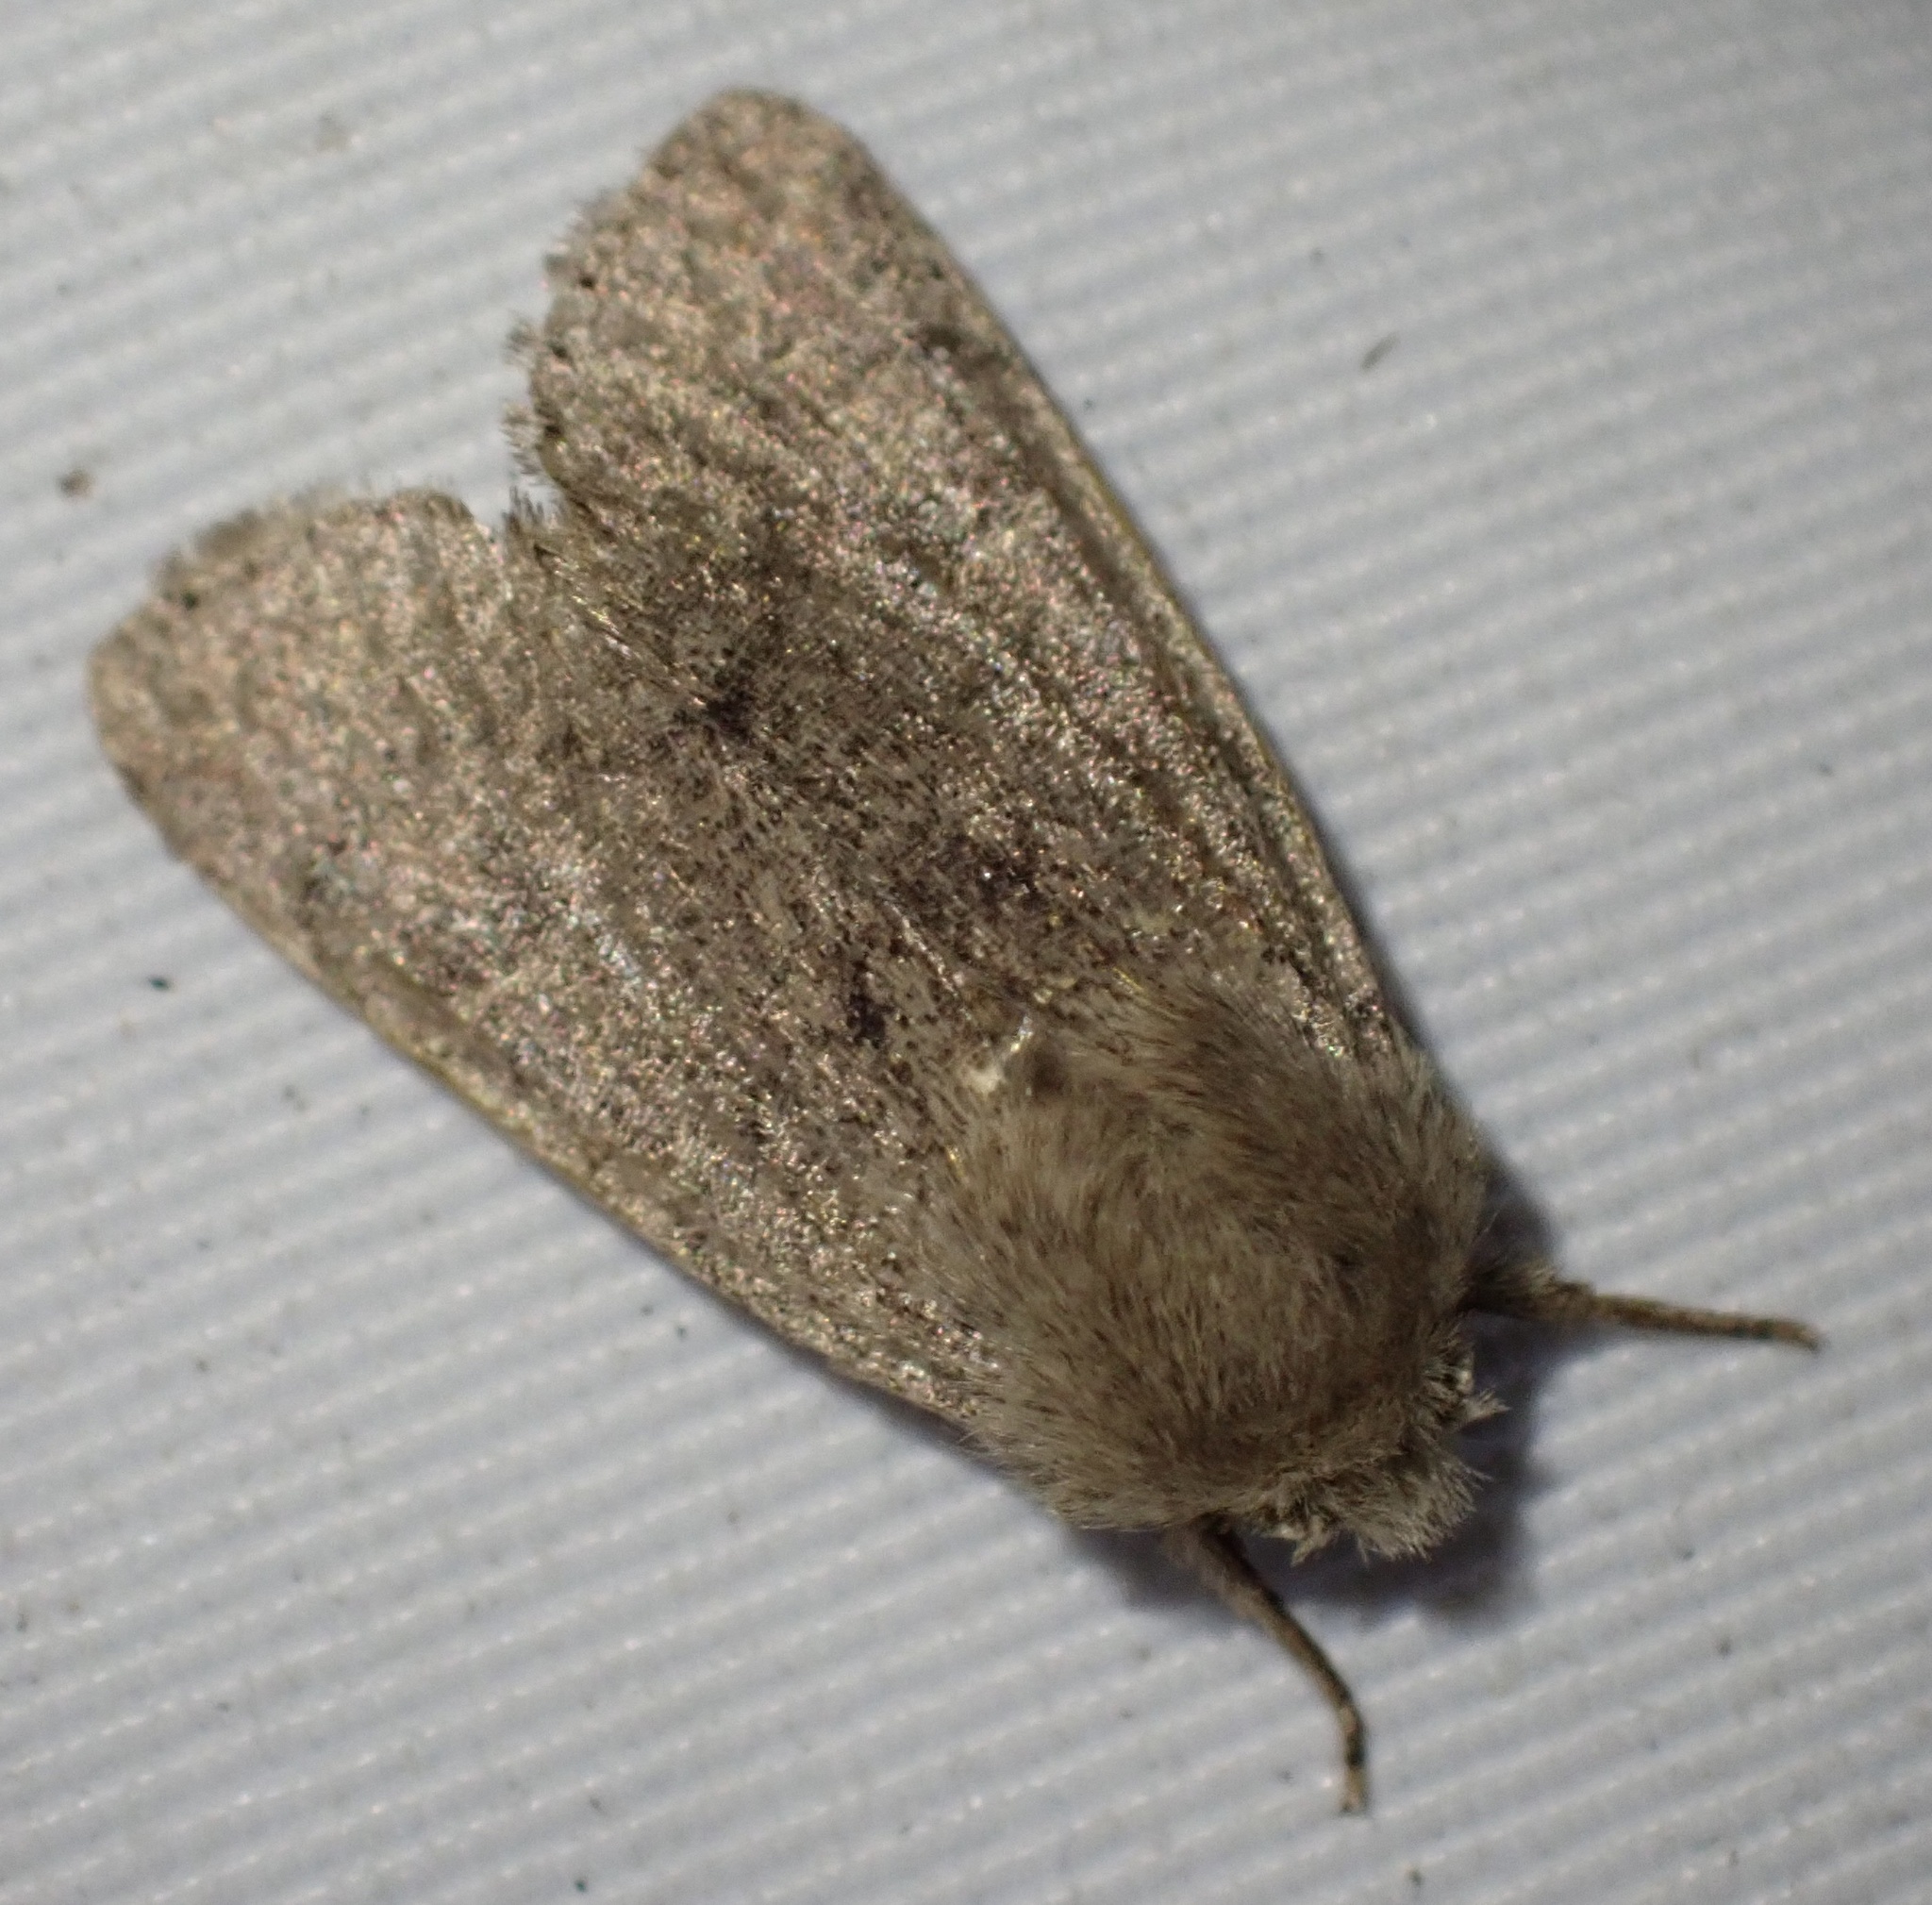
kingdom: Animalia
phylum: Arthropoda
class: Insecta
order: Lepidoptera
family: Noctuidae
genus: Orthosia
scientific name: Orthosia cruda
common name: Small quaker
